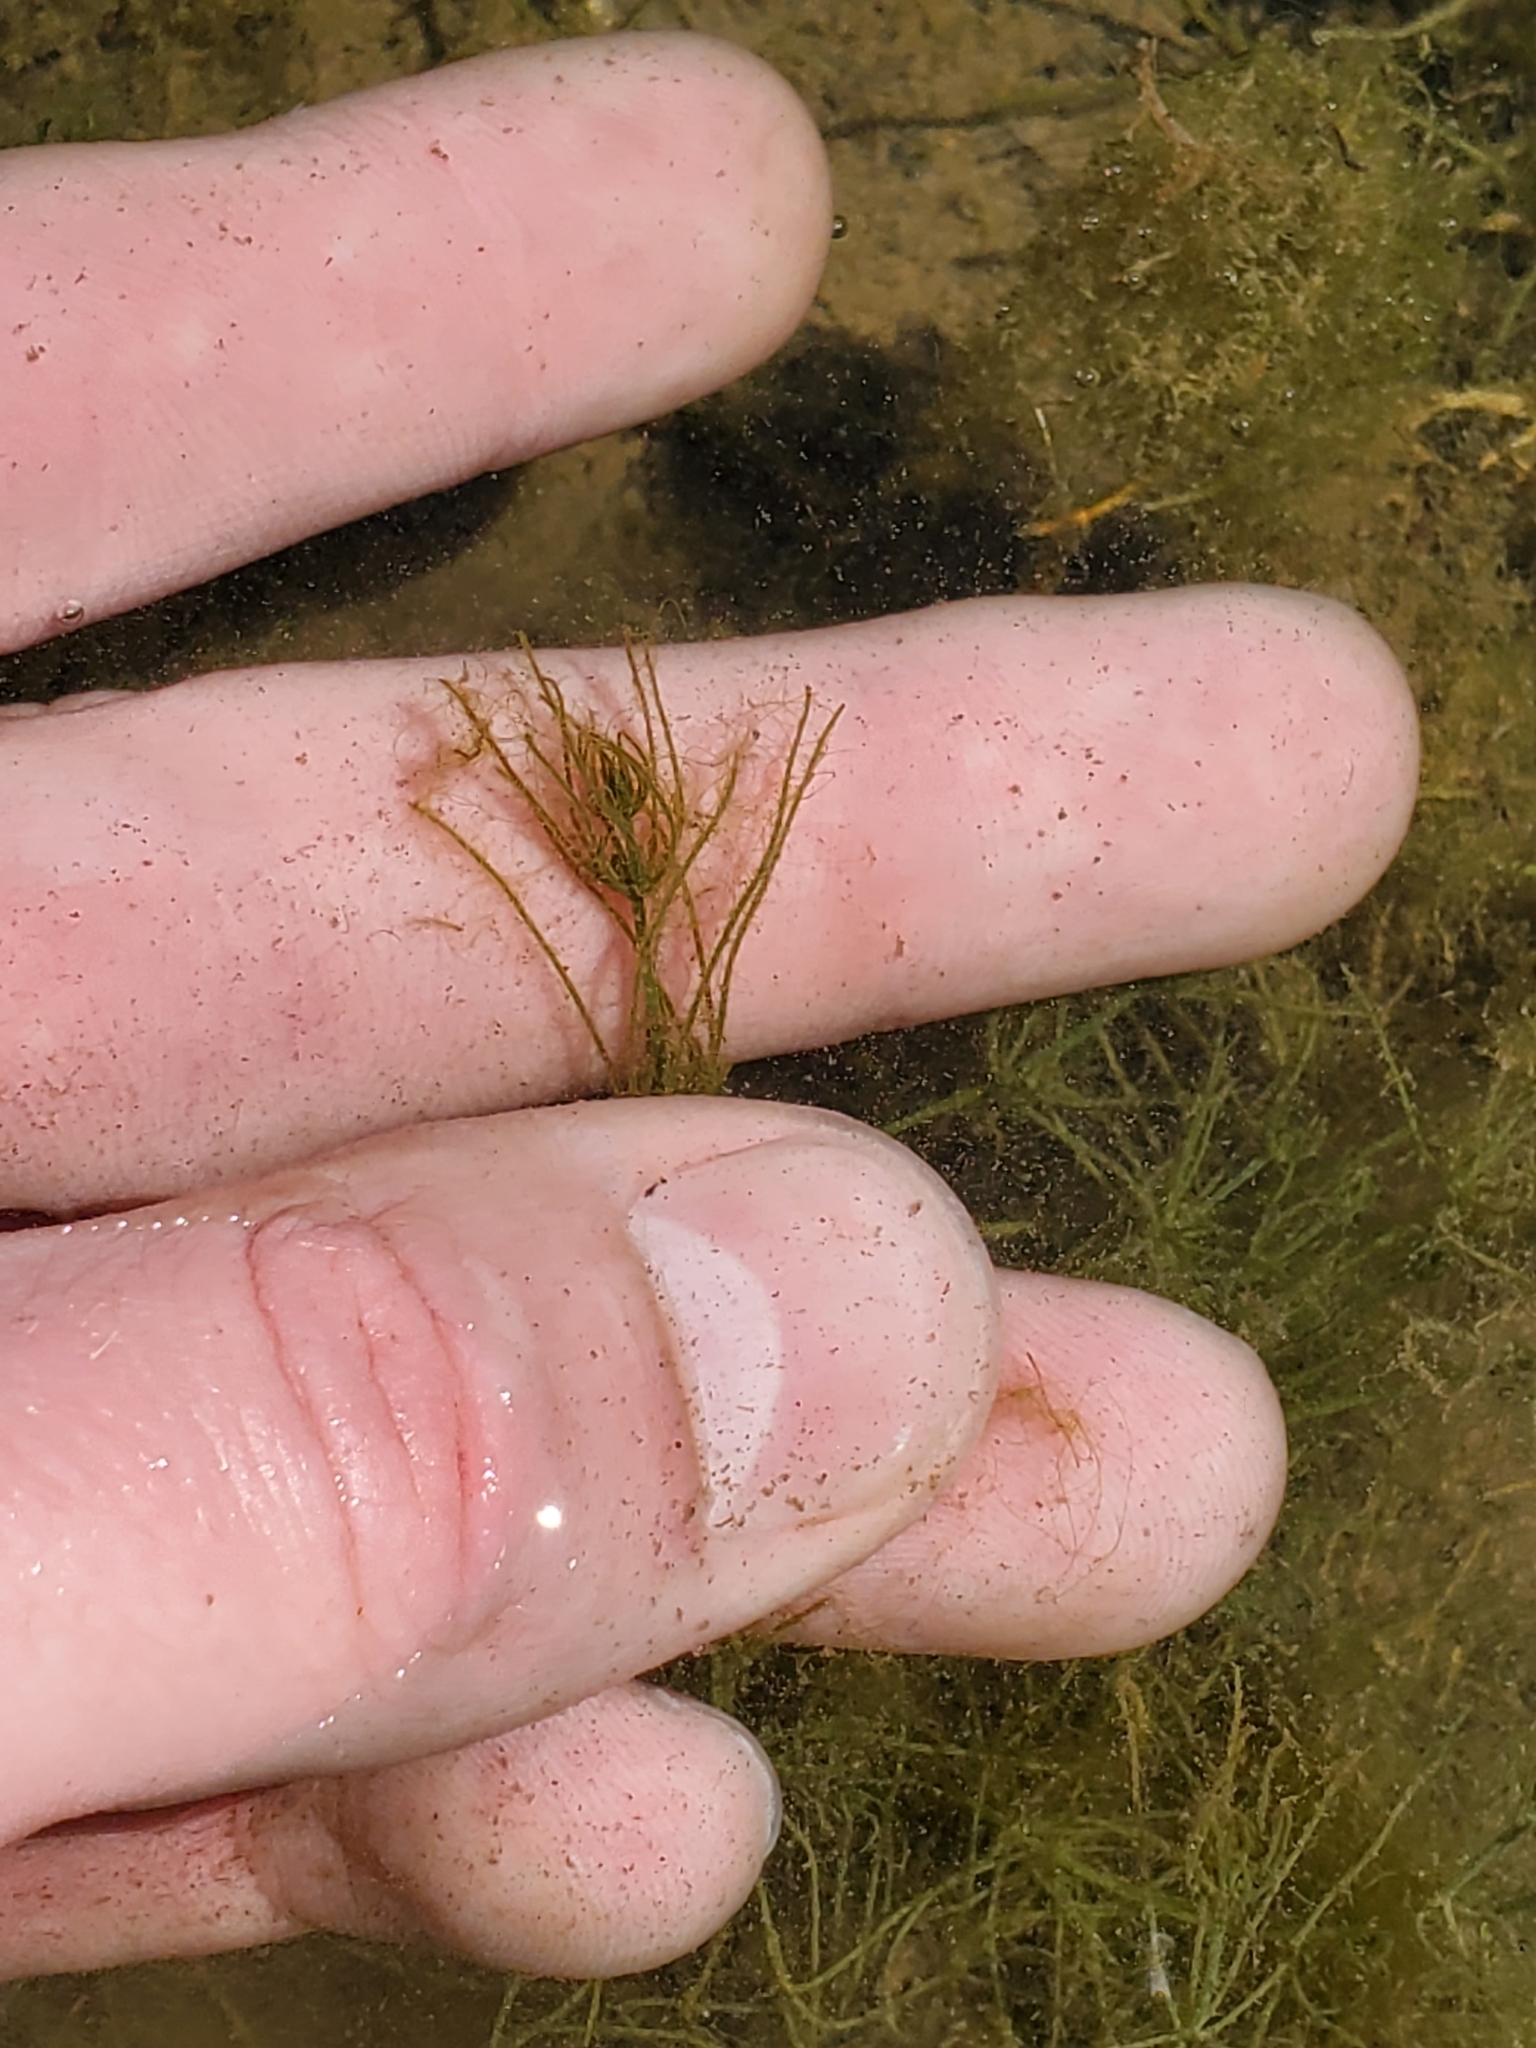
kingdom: Plantae
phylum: Charophyta
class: Charophyceae
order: Charales
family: Characeae
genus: Chara
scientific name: Chara
